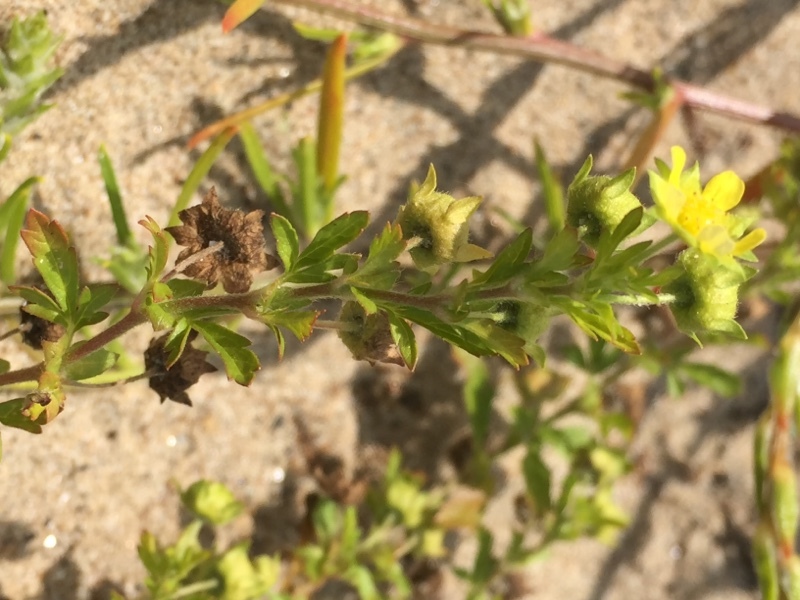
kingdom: Plantae
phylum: Tracheophyta
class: Magnoliopsida
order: Rosales
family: Rosaceae
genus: Potentilla
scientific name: Potentilla supina
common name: Prostrate cinquefoil
